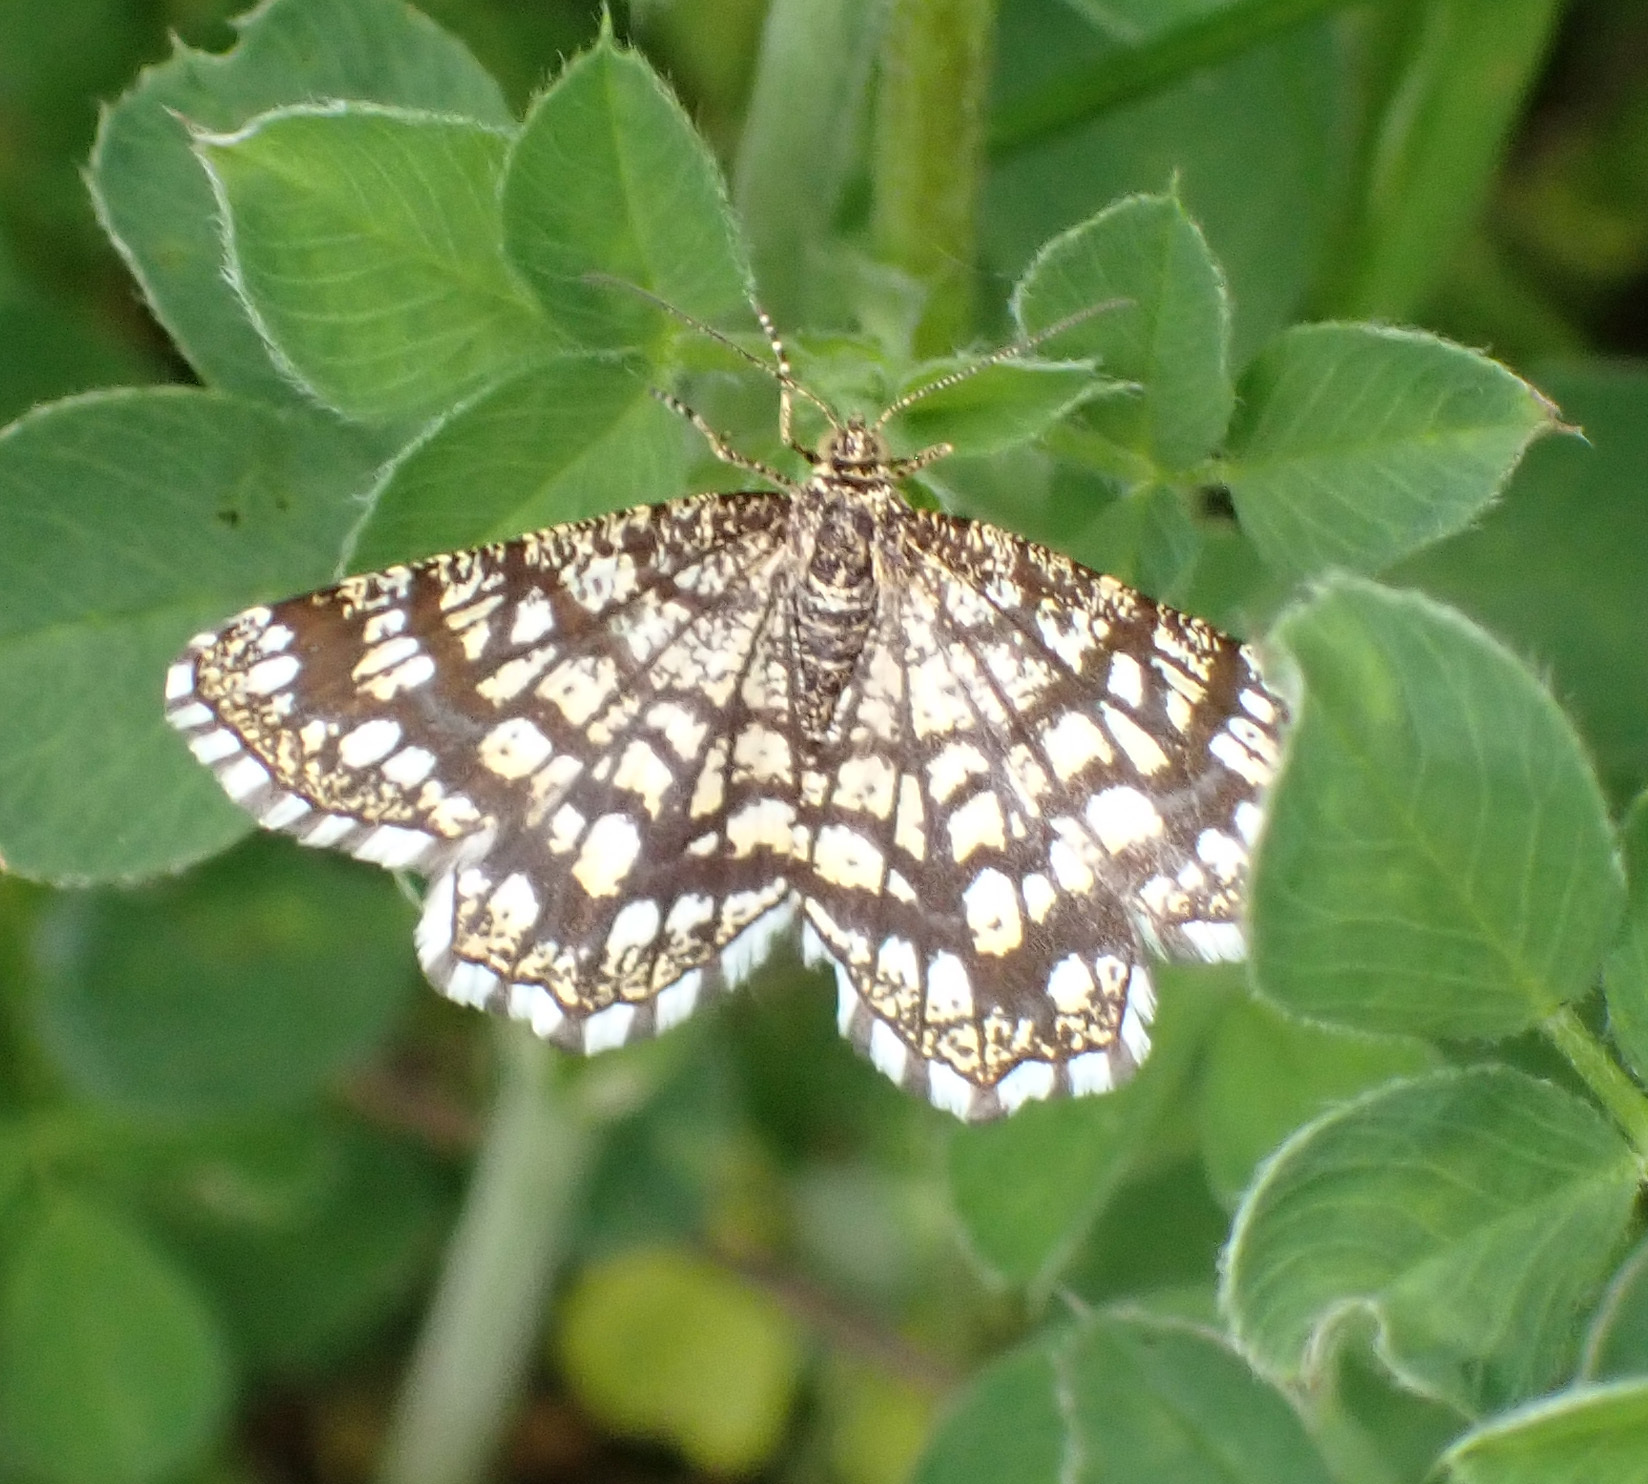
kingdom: Animalia
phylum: Arthropoda
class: Insecta
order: Lepidoptera
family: Geometridae
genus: Chiasmia
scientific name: Chiasmia clathrata
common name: Latticed heath
